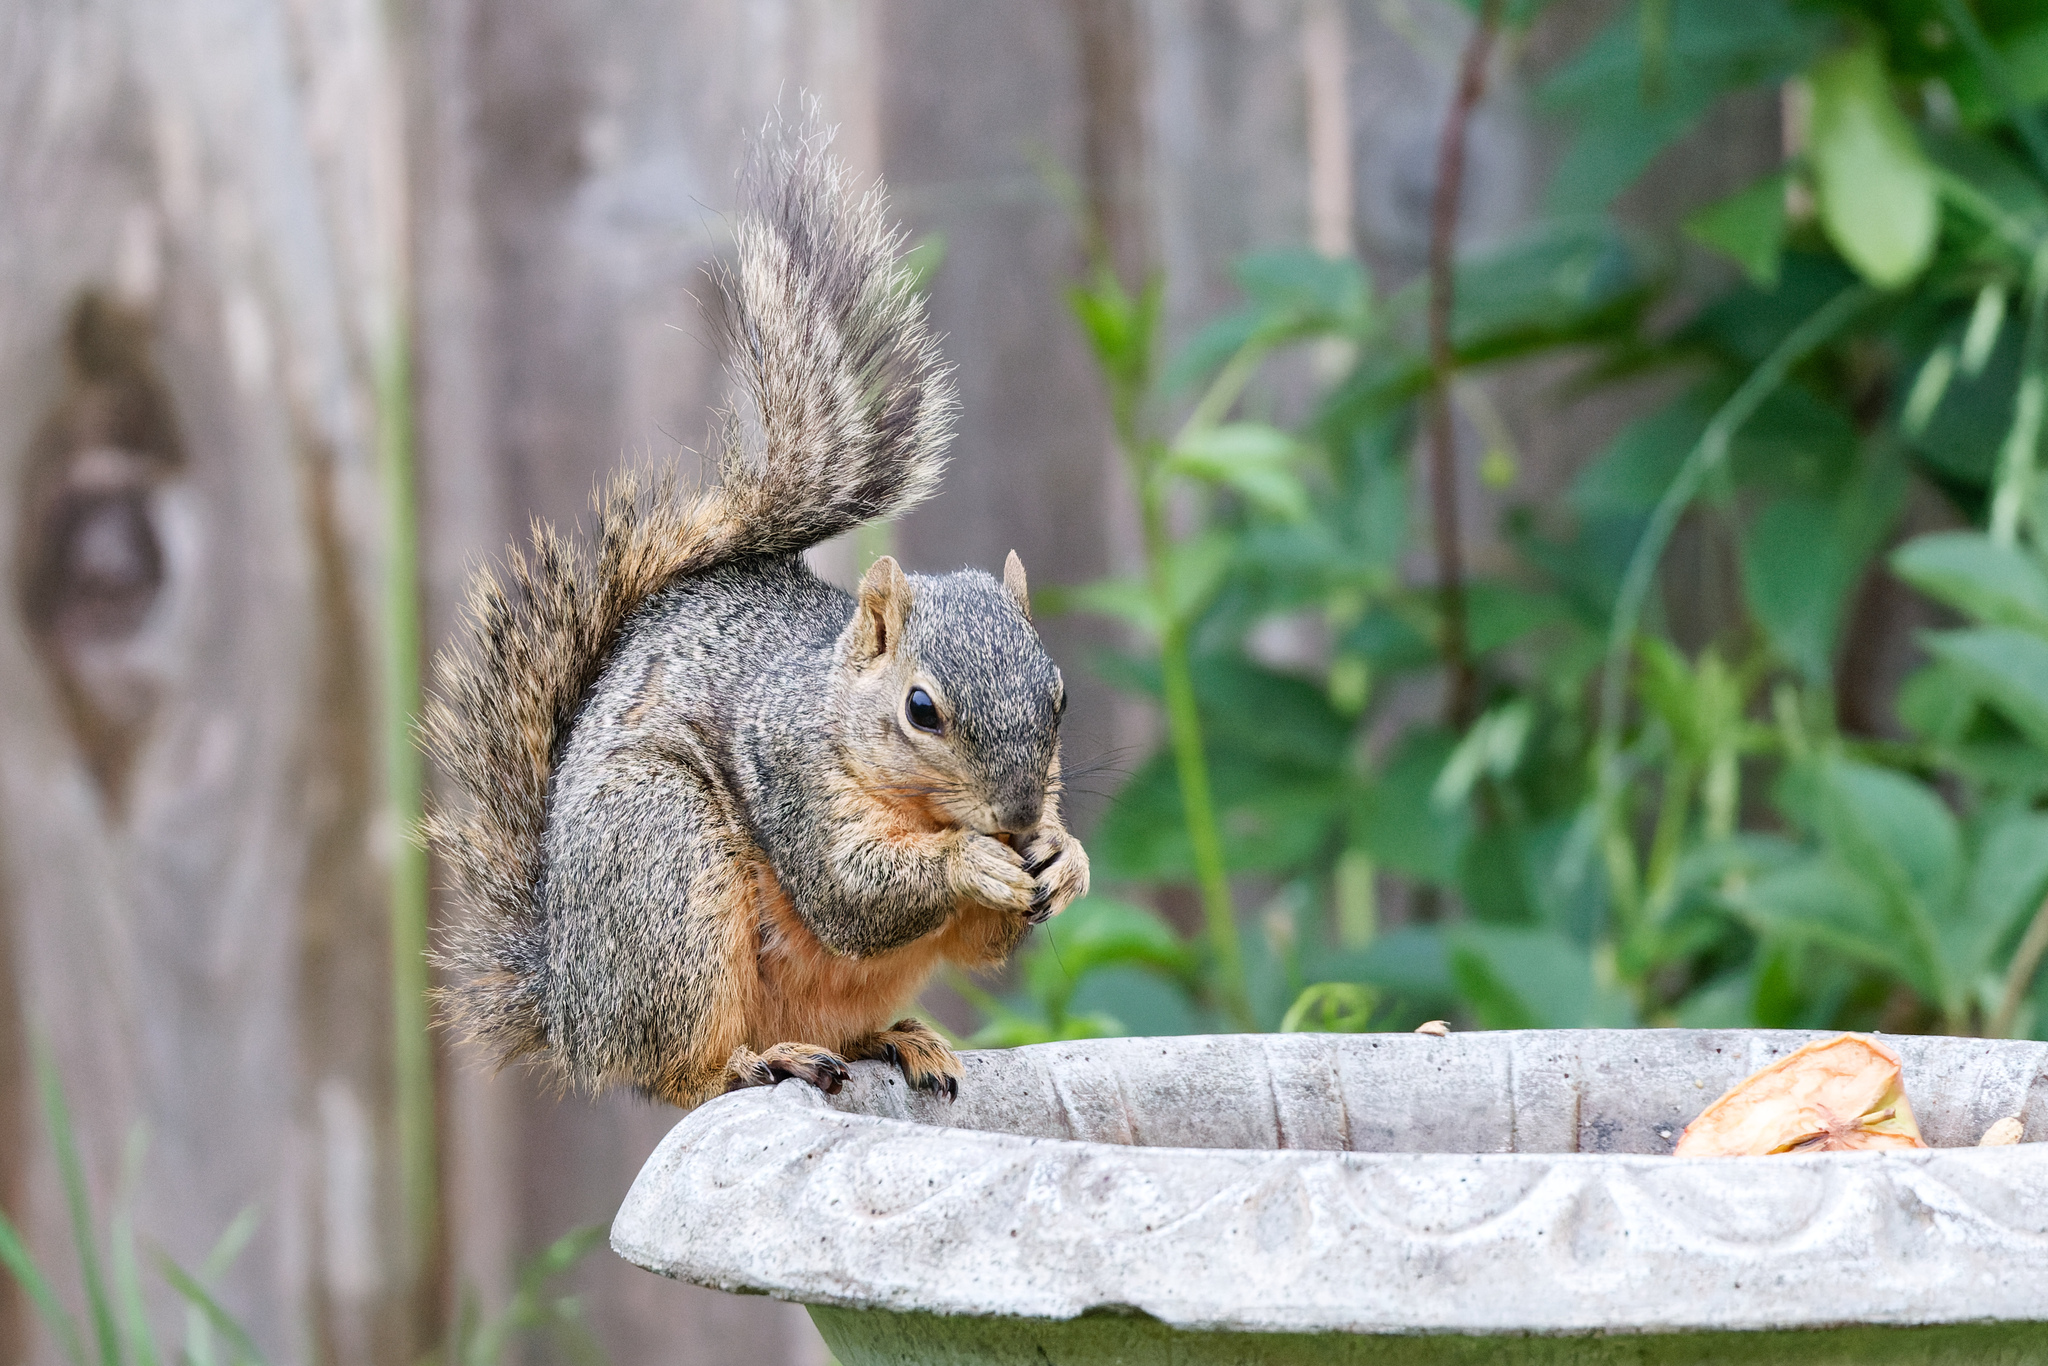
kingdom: Animalia
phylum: Chordata
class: Mammalia
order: Rodentia
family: Sciuridae
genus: Sciurus
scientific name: Sciurus niger
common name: Fox squirrel
